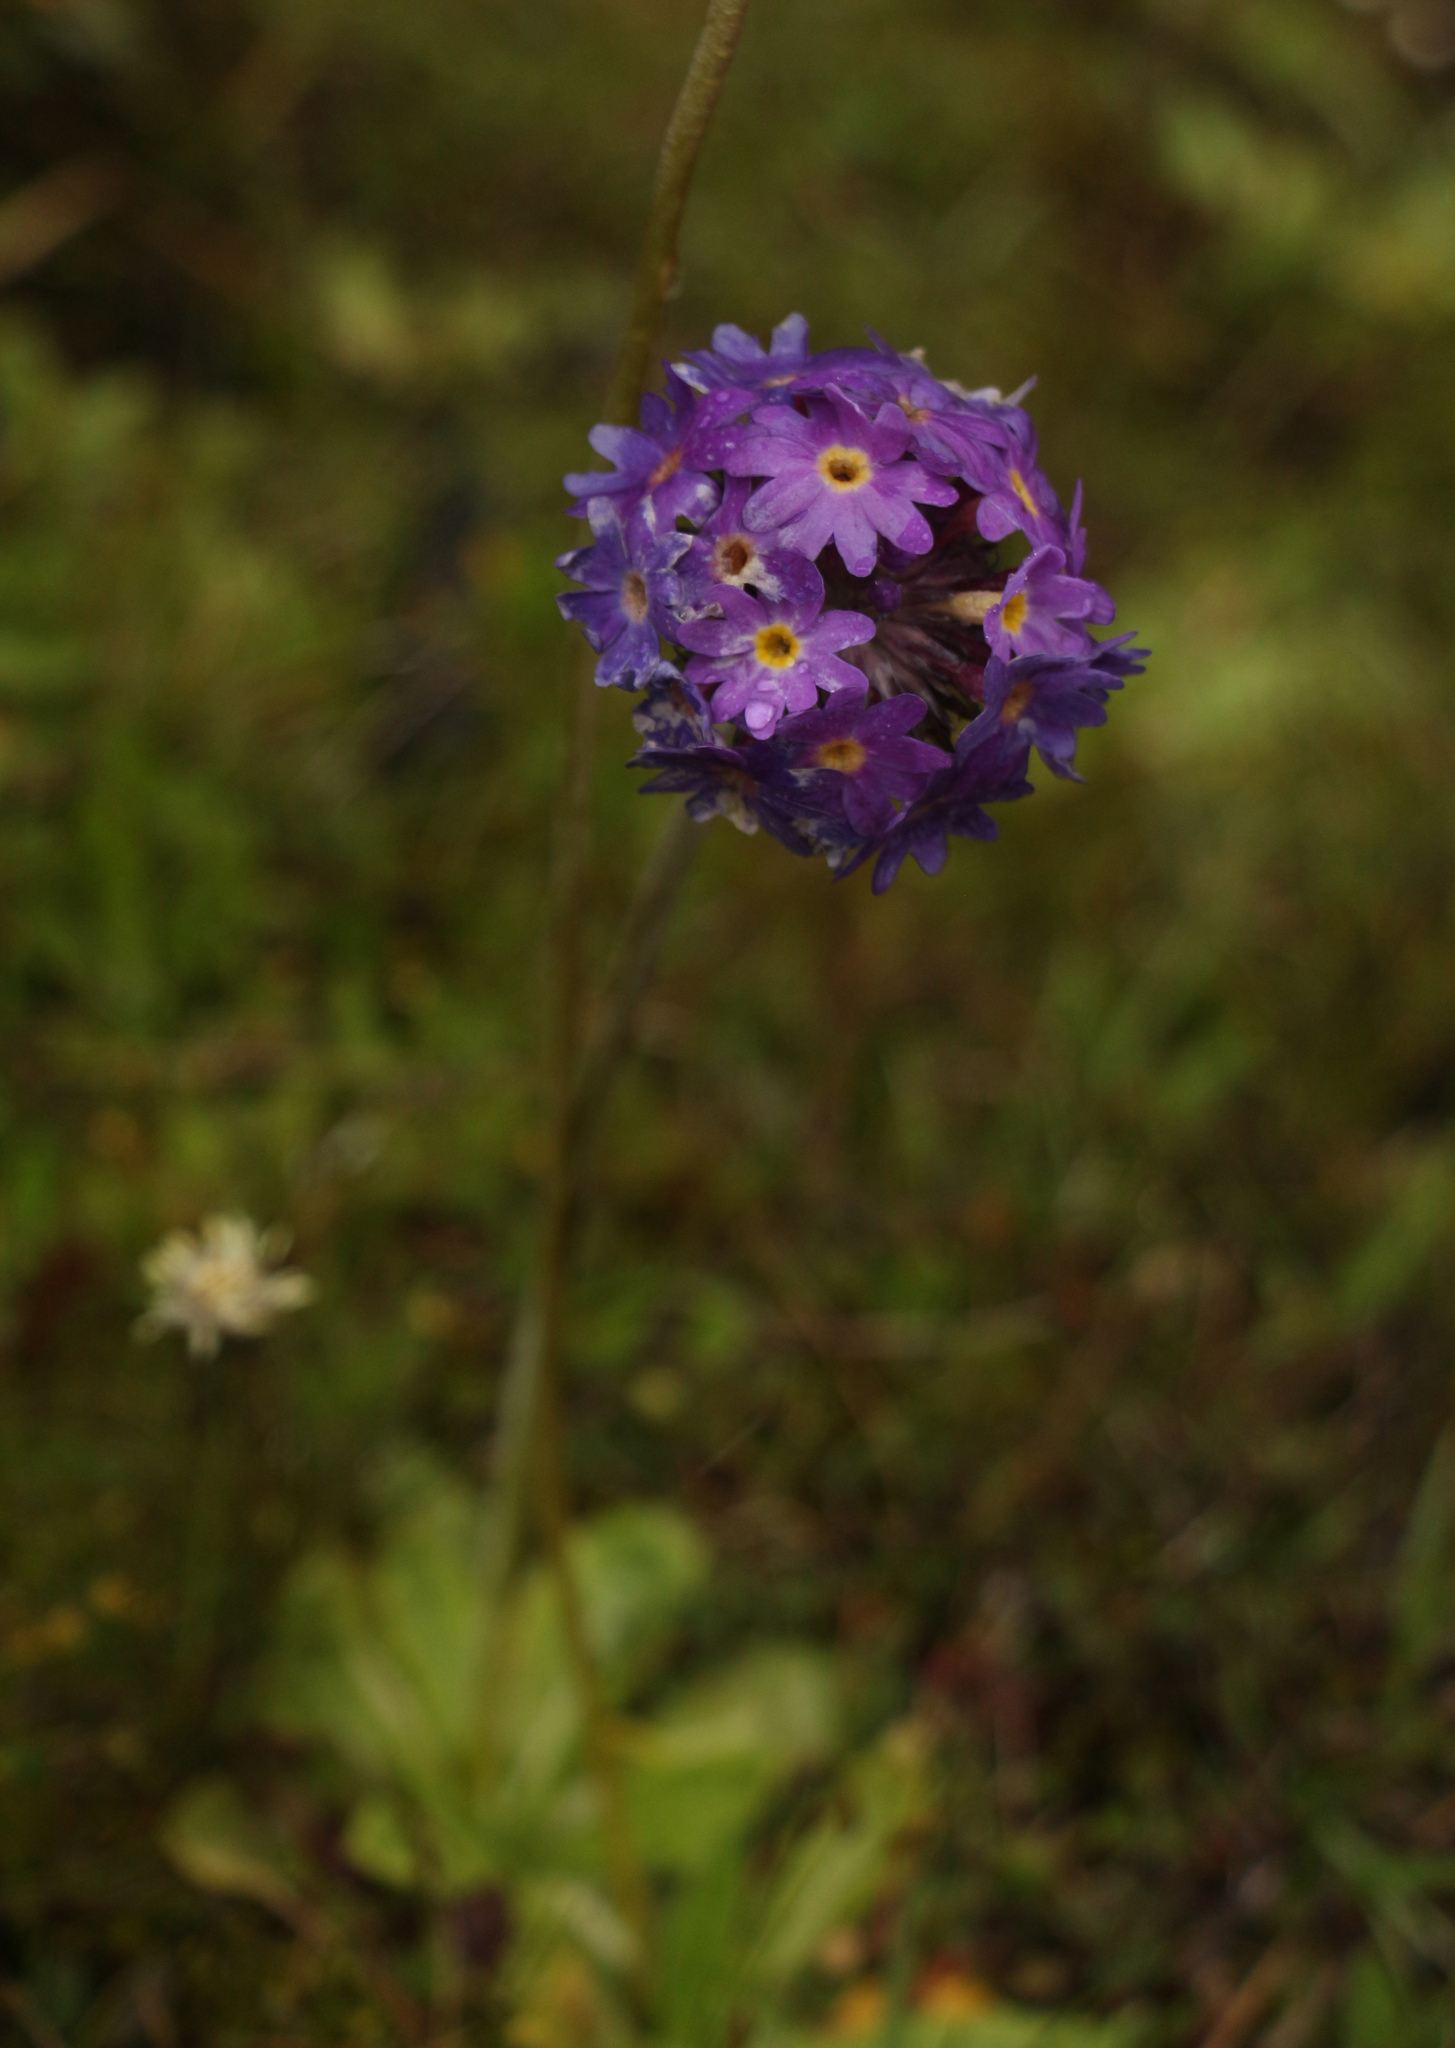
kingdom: Plantae
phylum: Tracheophyta
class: Magnoliopsida
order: Ericales
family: Primulaceae
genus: Primula
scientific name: Primula denticulata
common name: Drumstick primula
